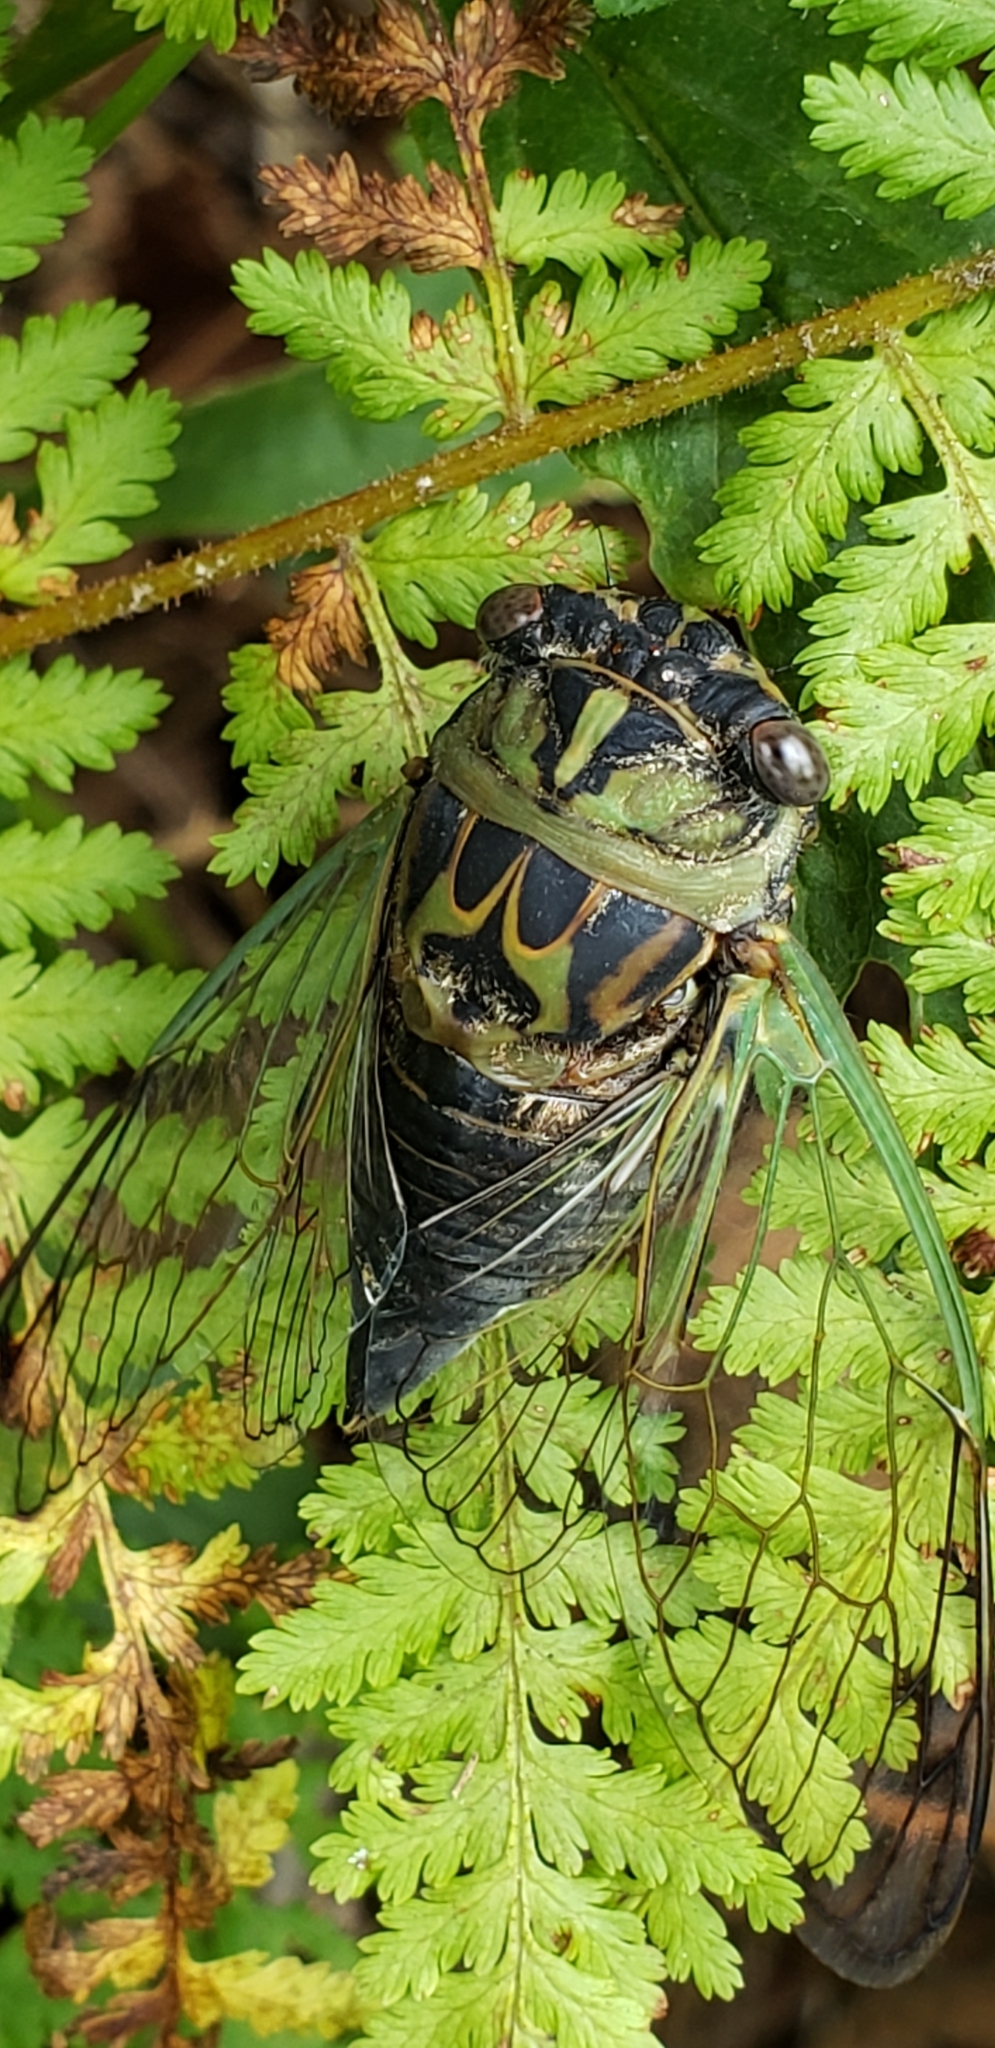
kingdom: Animalia
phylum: Arthropoda
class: Insecta
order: Hemiptera
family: Cicadidae
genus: Neotibicen
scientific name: Neotibicen canicularis
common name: God-day cicada
